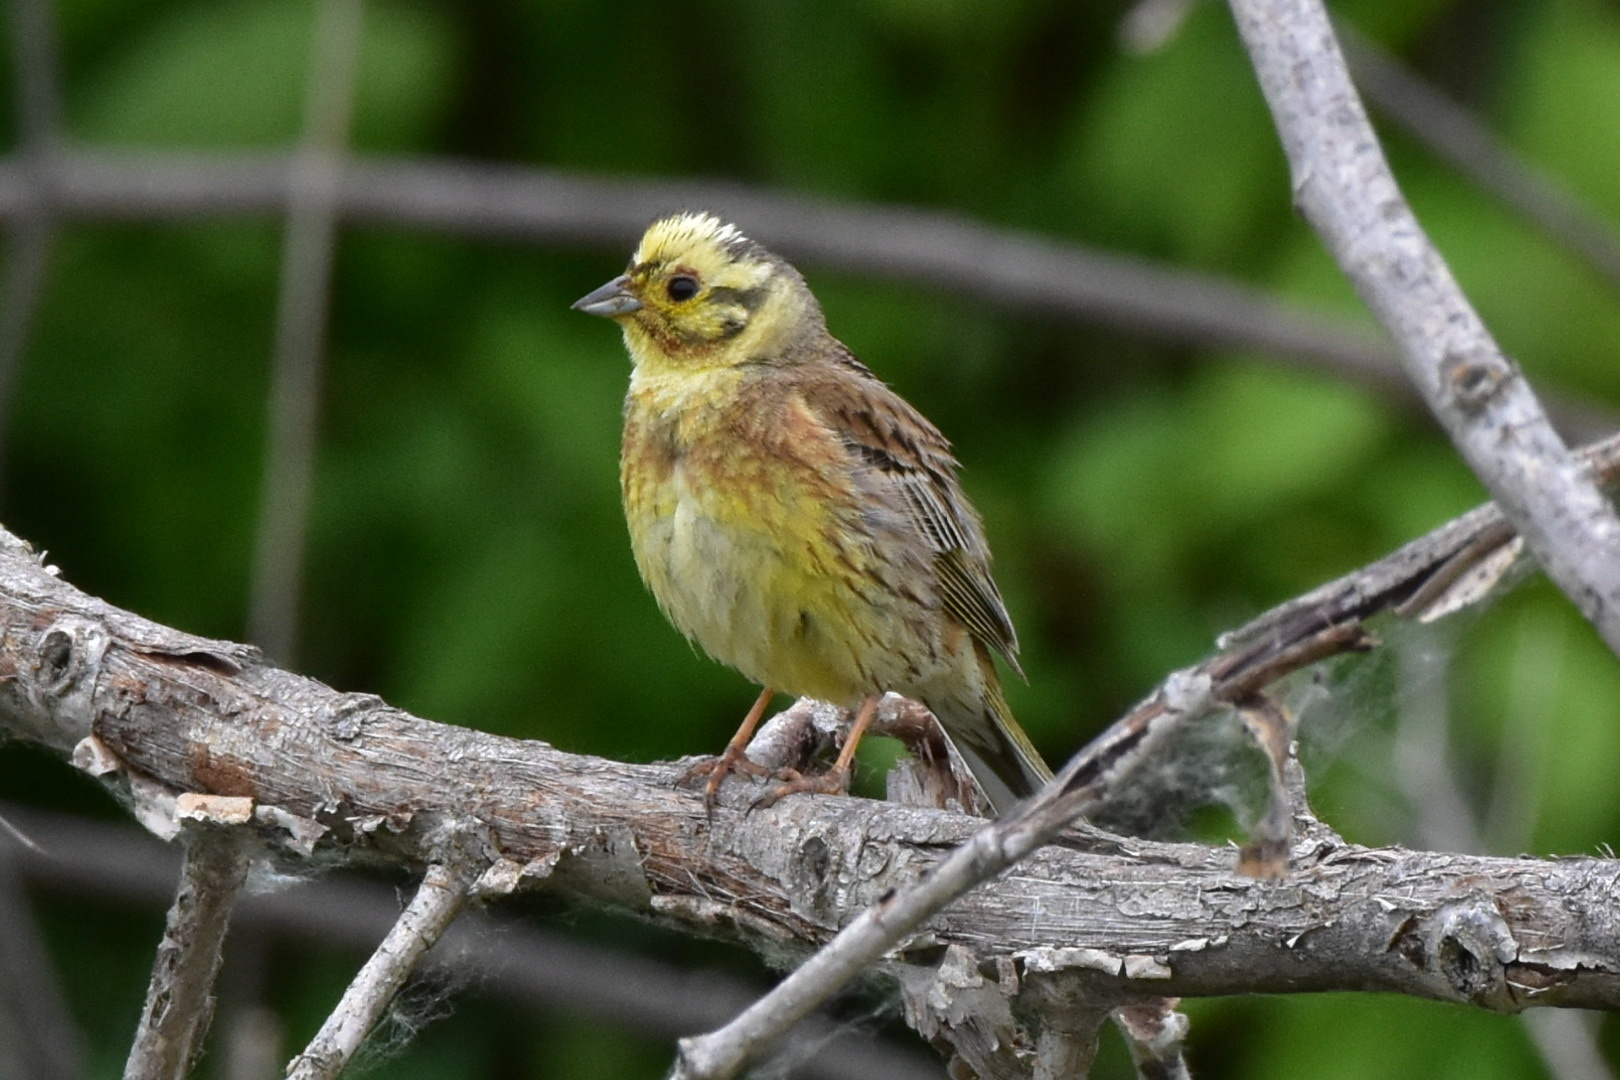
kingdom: Animalia
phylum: Chordata
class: Aves
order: Passeriformes
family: Emberizidae
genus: Emberiza
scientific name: Emberiza citrinella
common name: Yellowhammer
